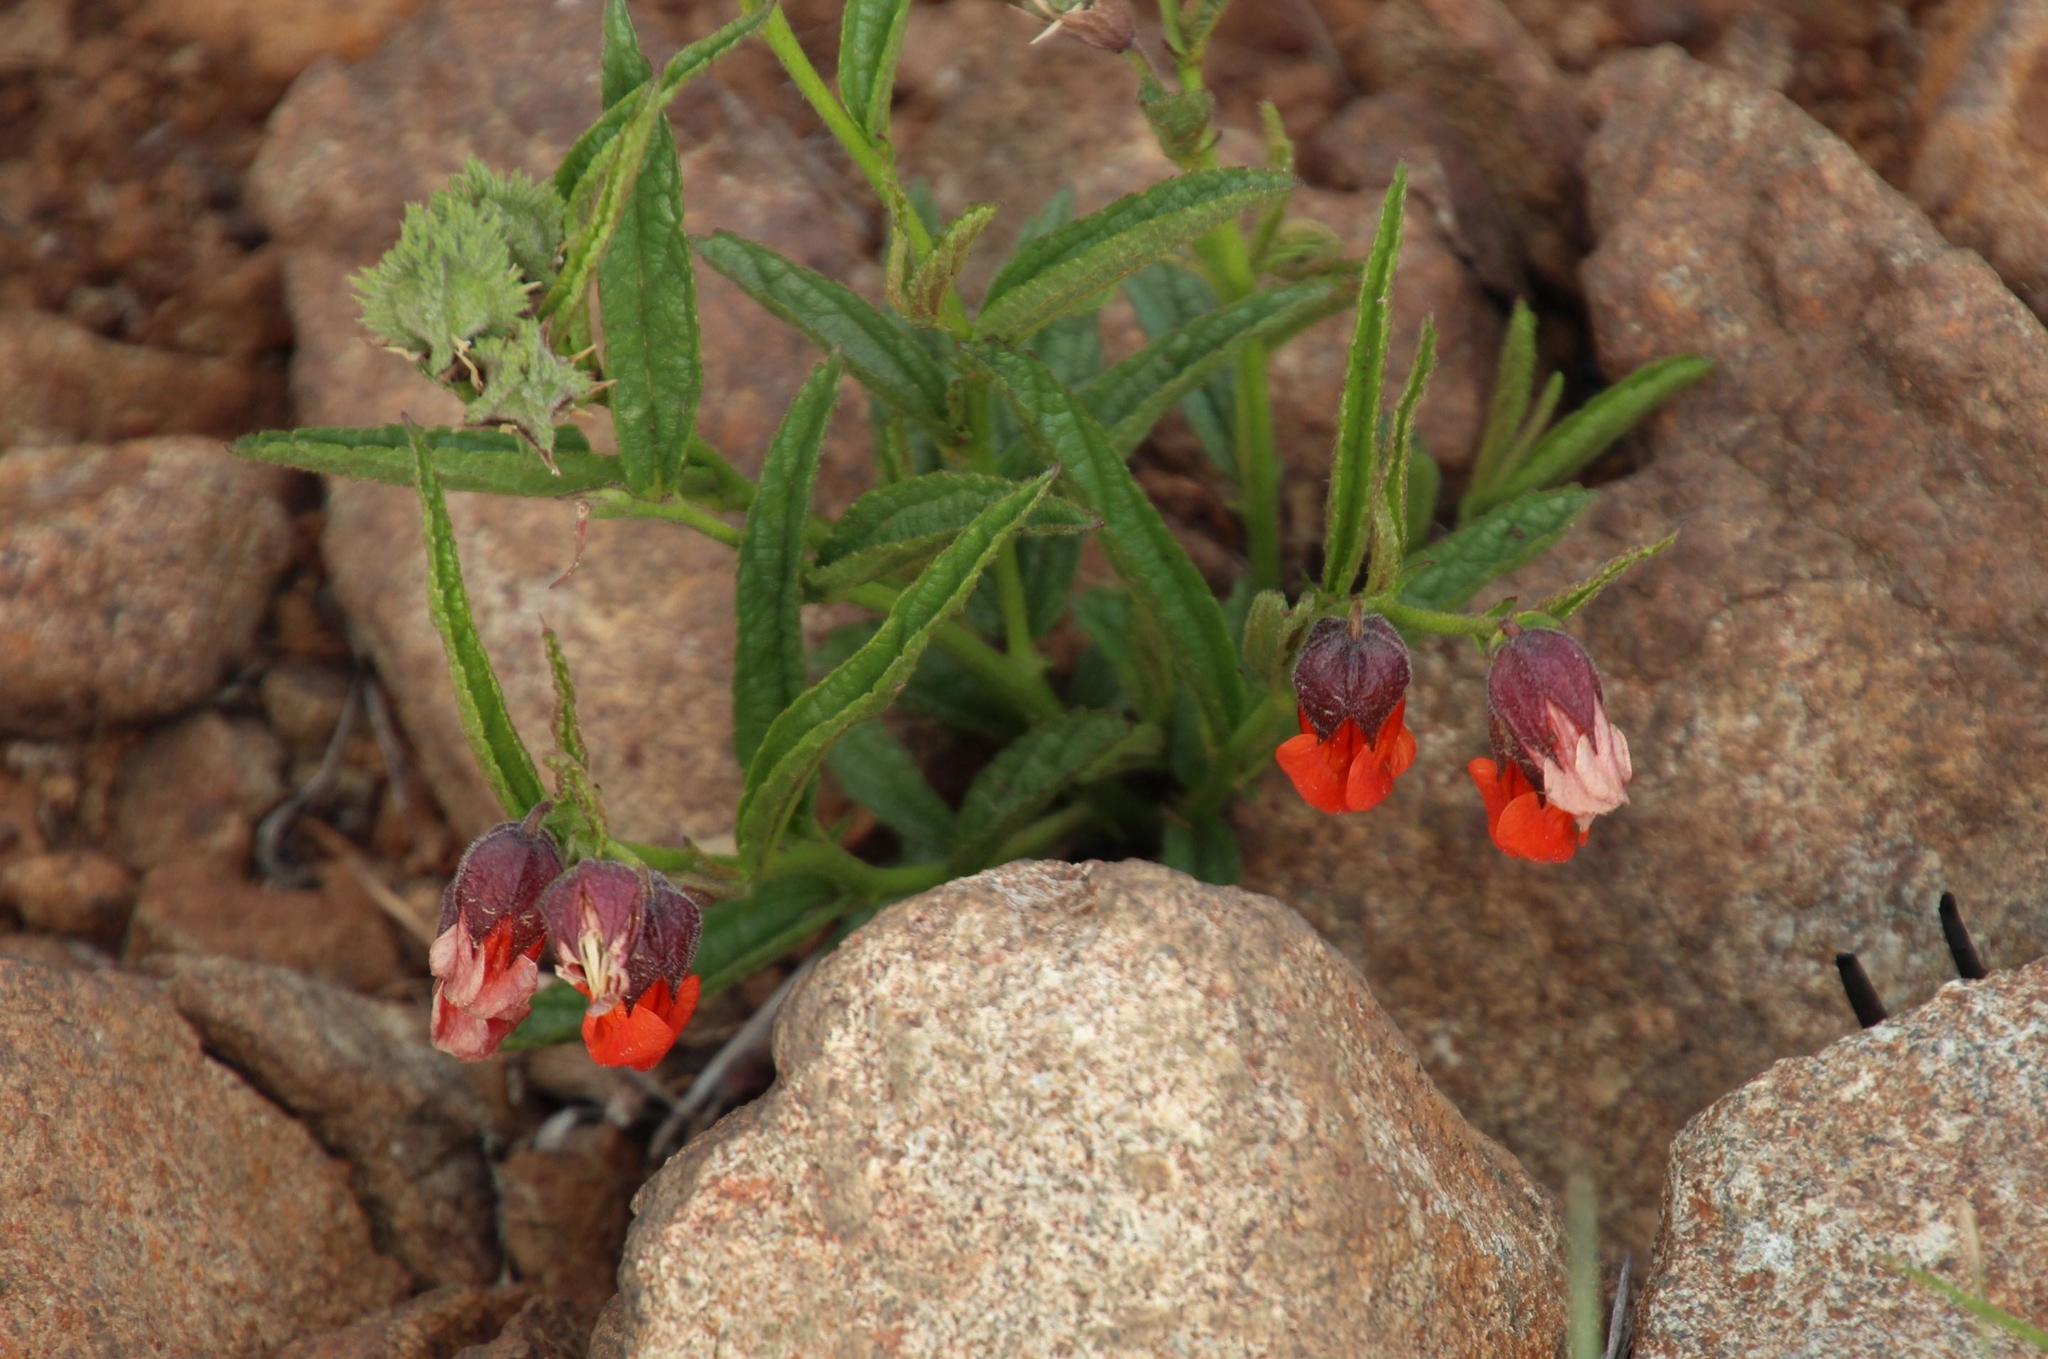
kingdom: Plantae
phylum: Tracheophyta
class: Magnoliopsida
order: Malvales
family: Malvaceae
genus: Hermannia
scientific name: Hermannia cristata
